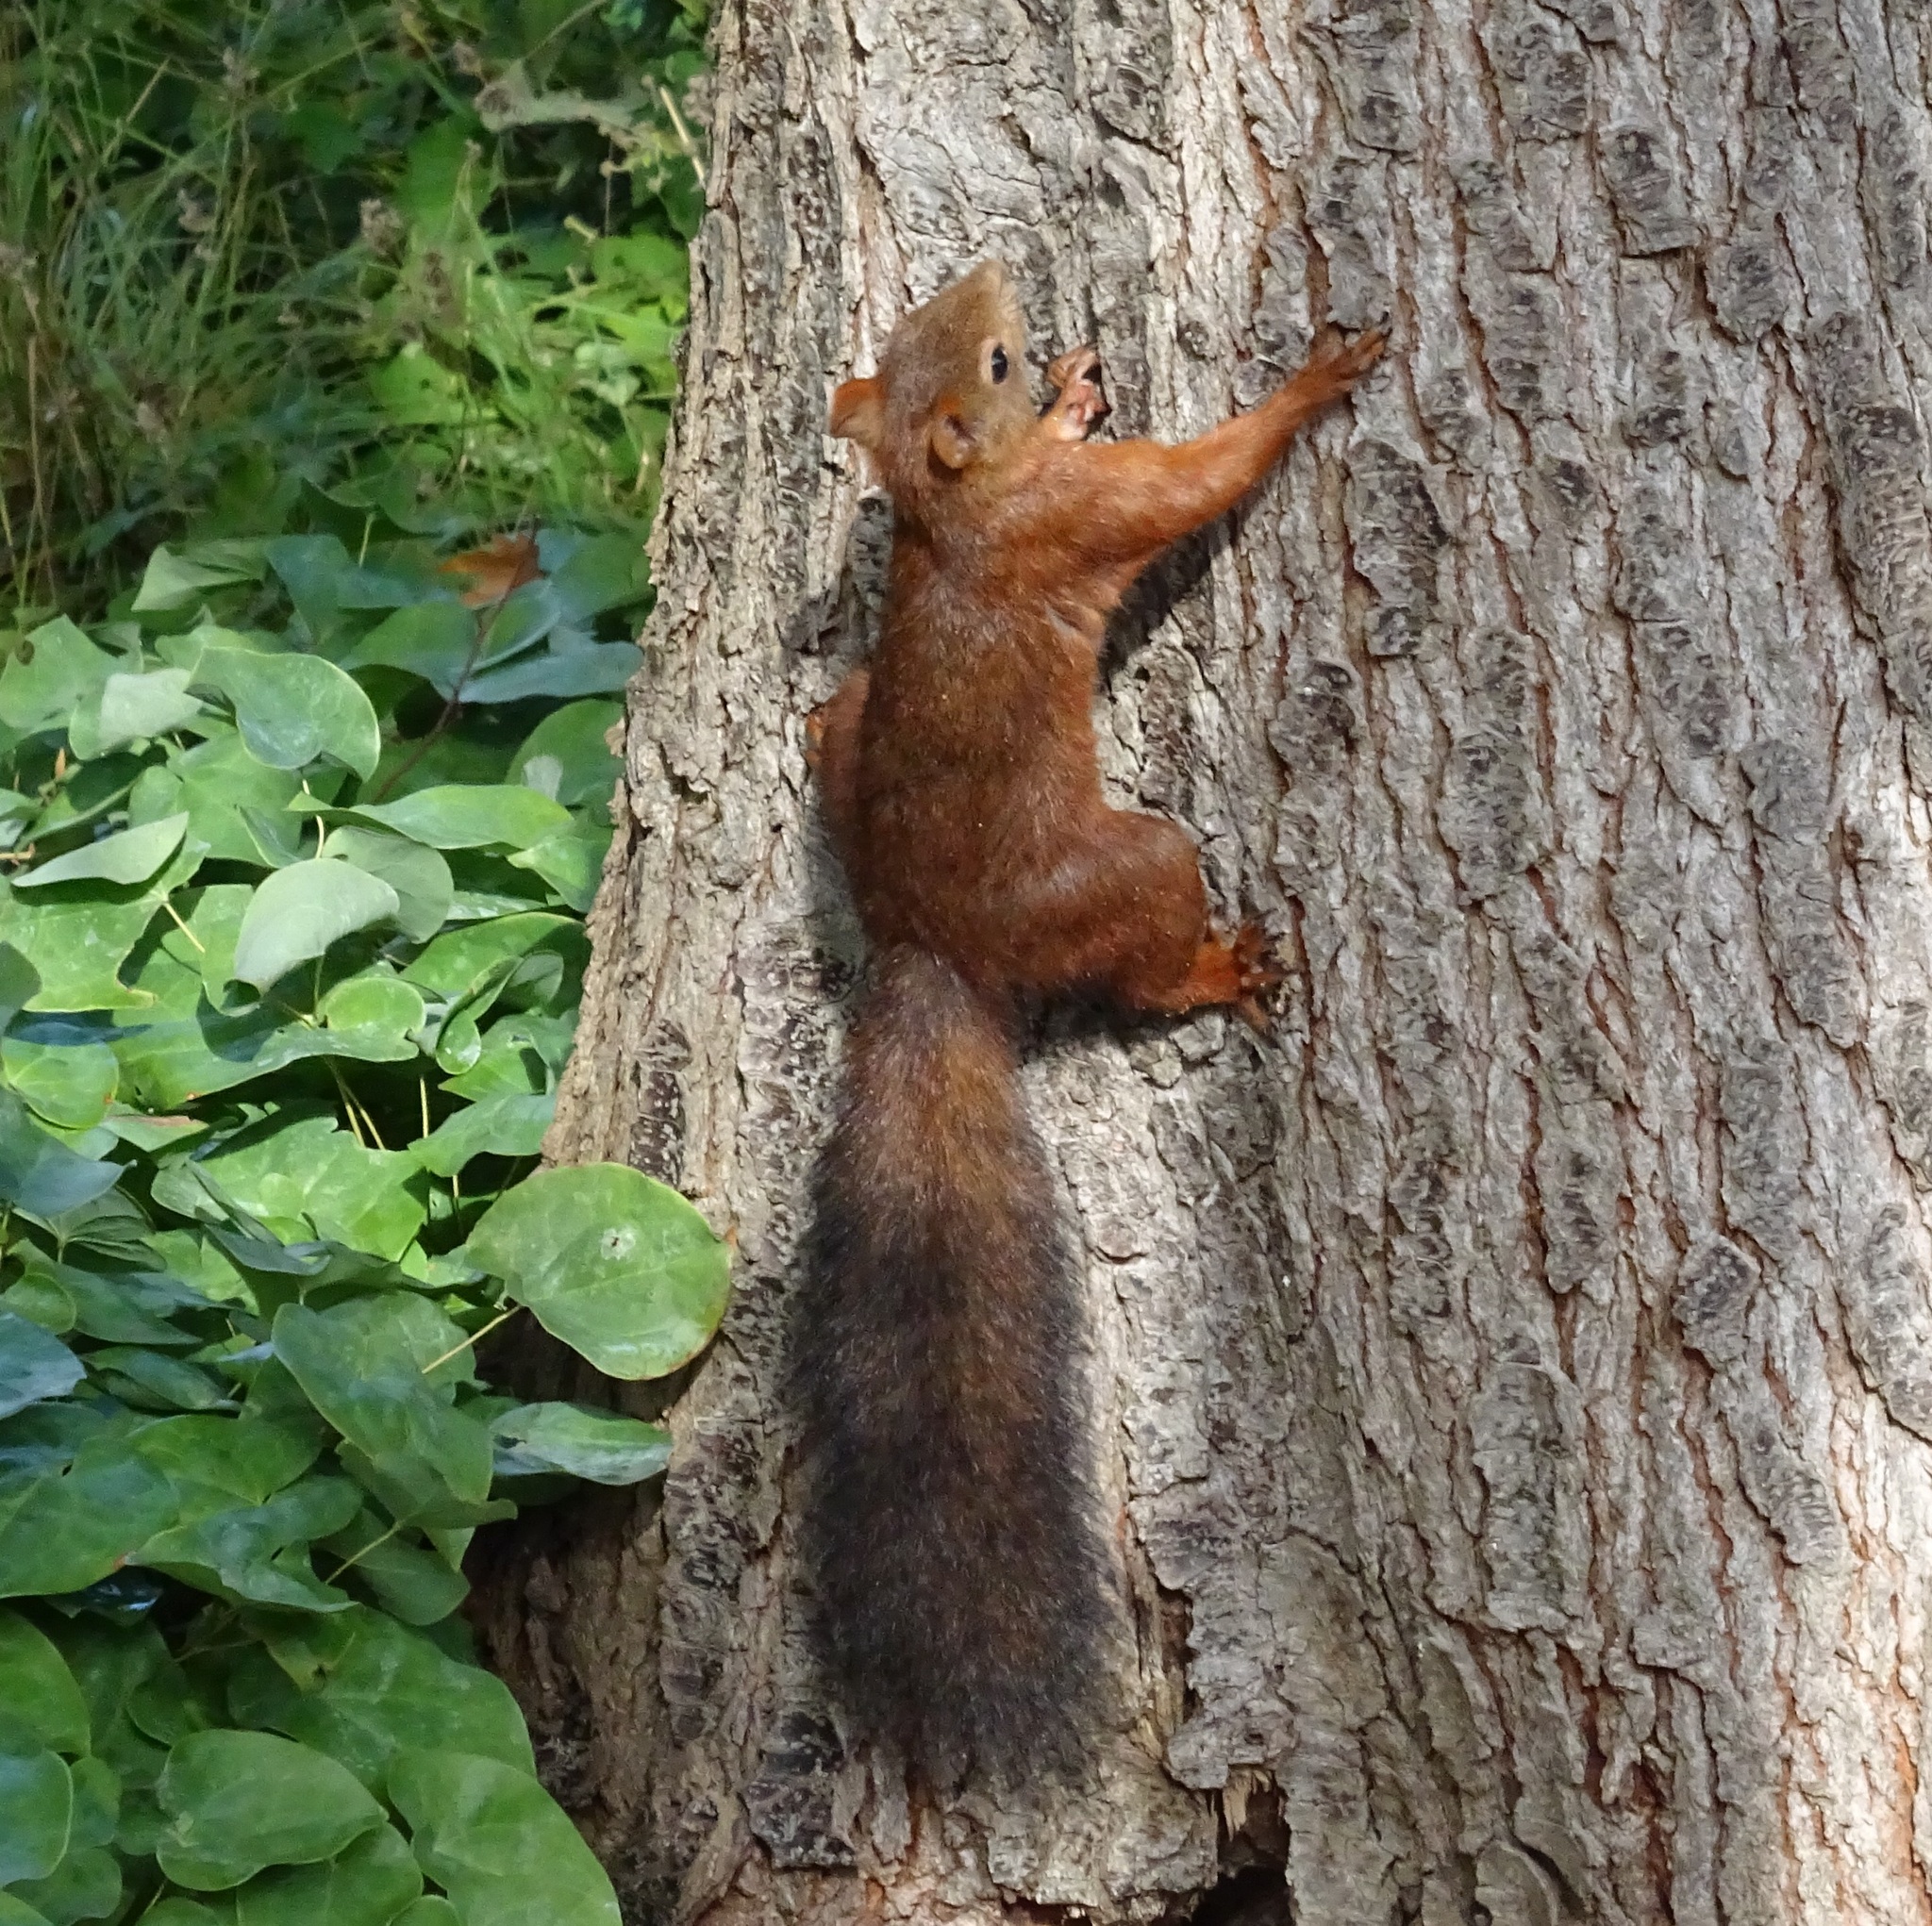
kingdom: Animalia
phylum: Chordata
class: Mammalia
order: Rodentia
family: Sciuridae
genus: Sciurus
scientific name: Sciurus vulgaris
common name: Eurasian red squirrel
